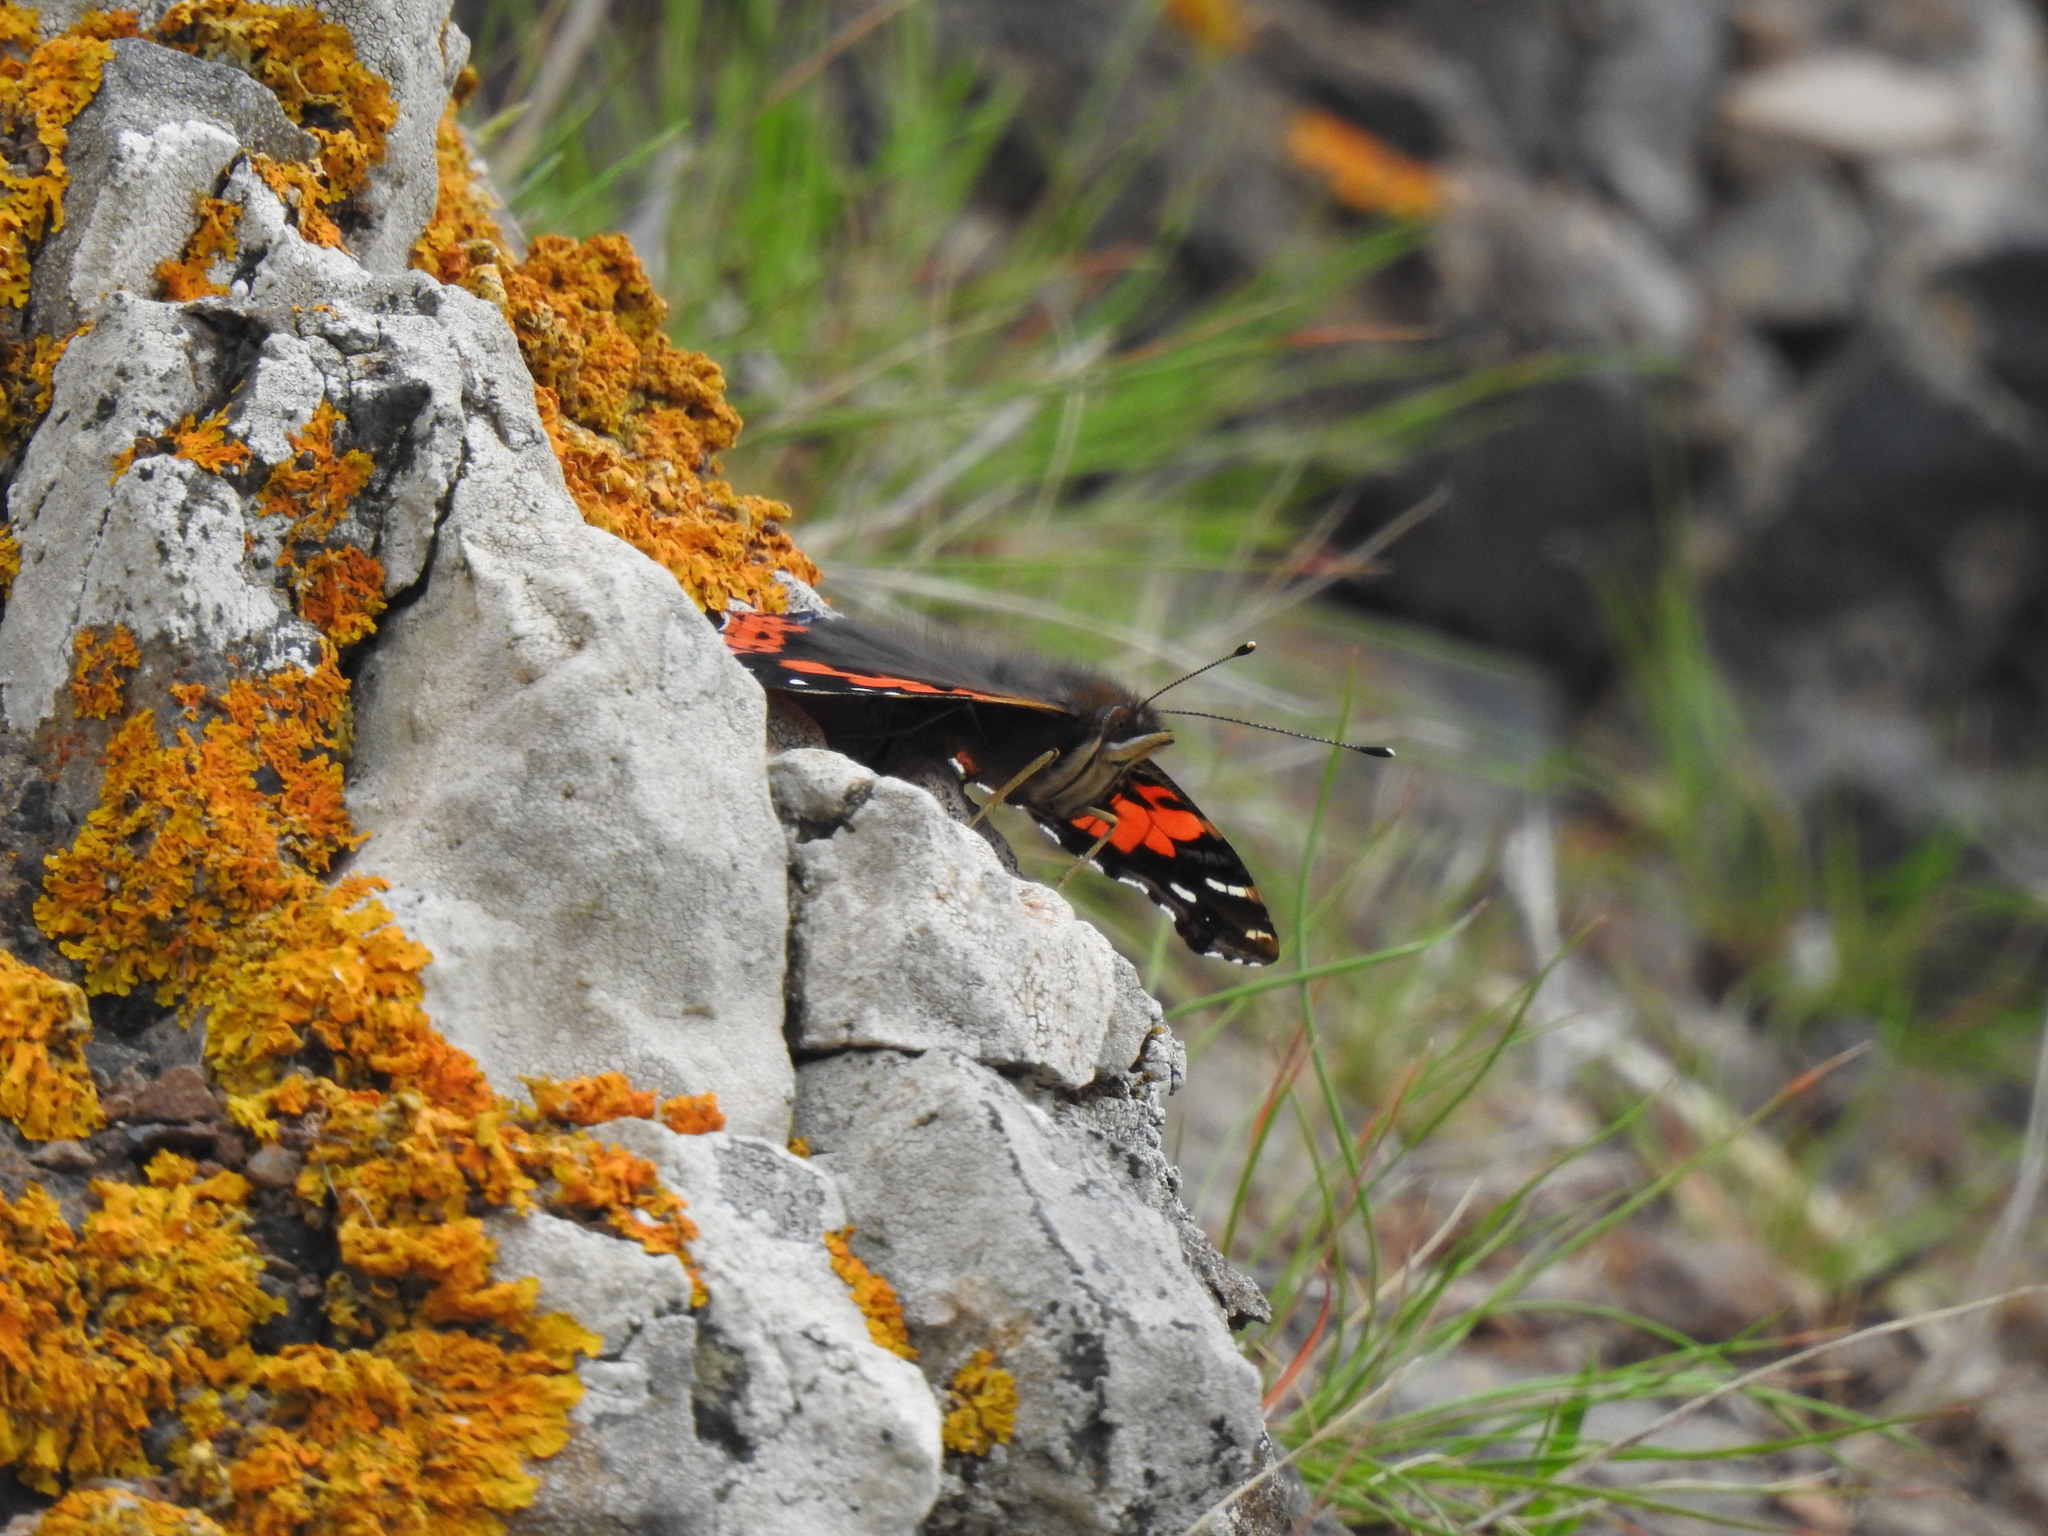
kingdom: Animalia
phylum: Arthropoda
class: Insecta
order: Lepidoptera
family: Nymphalidae
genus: Vanessa
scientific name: Vanessa vulcania
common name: Canary red admiral
